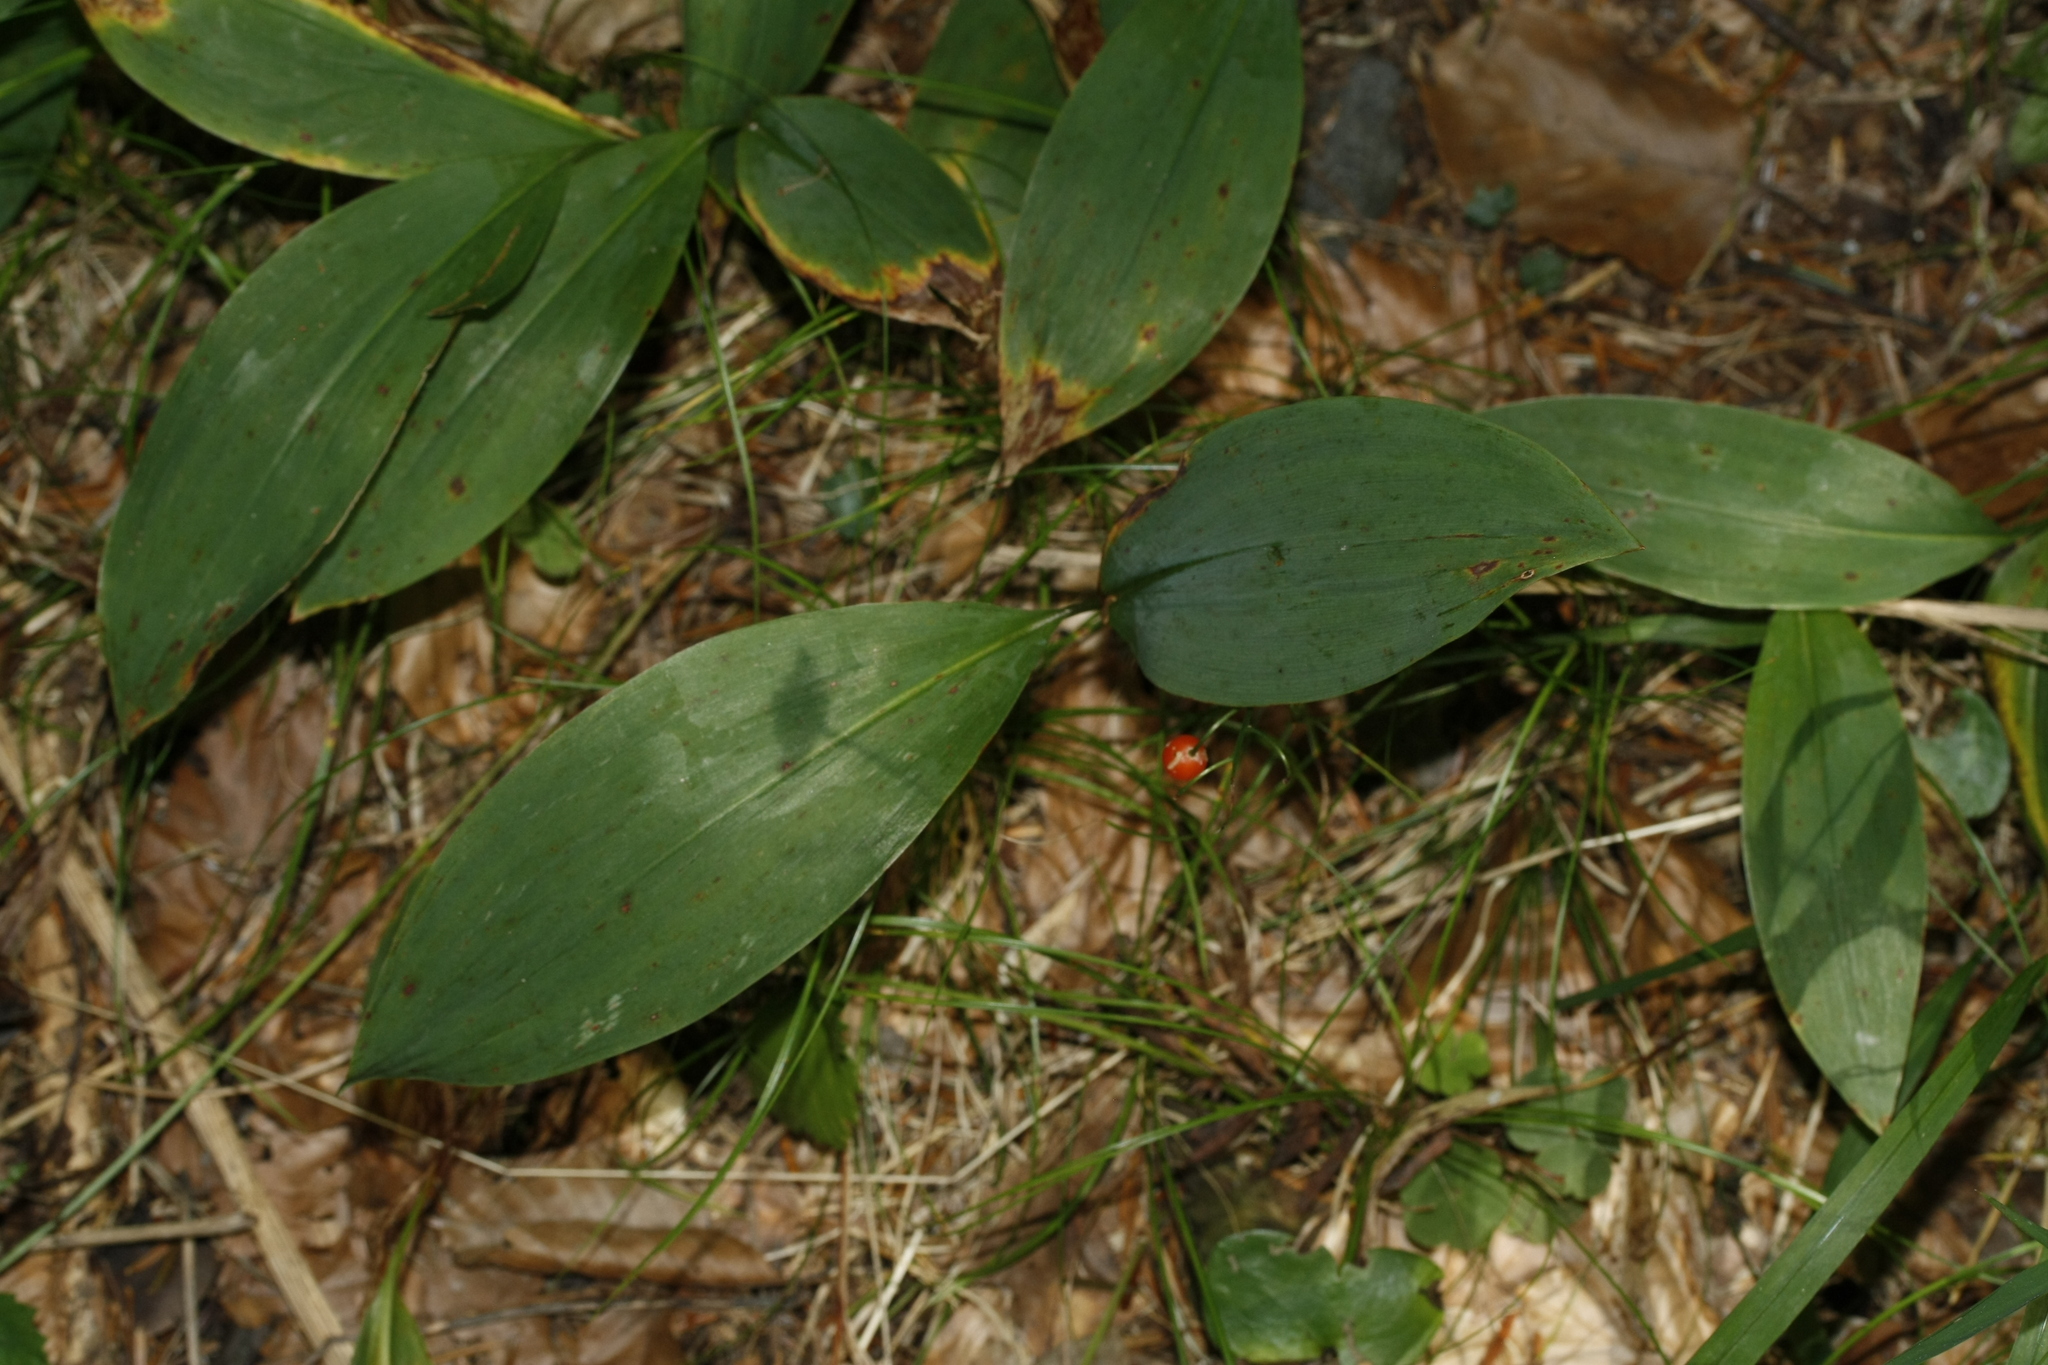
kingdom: Plantae
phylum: Tracheophyta
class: Liliopsida
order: Asparagales
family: Asparagaceae
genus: Convallaria
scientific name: Convallaria majalis
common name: Lily-of-the-valley
